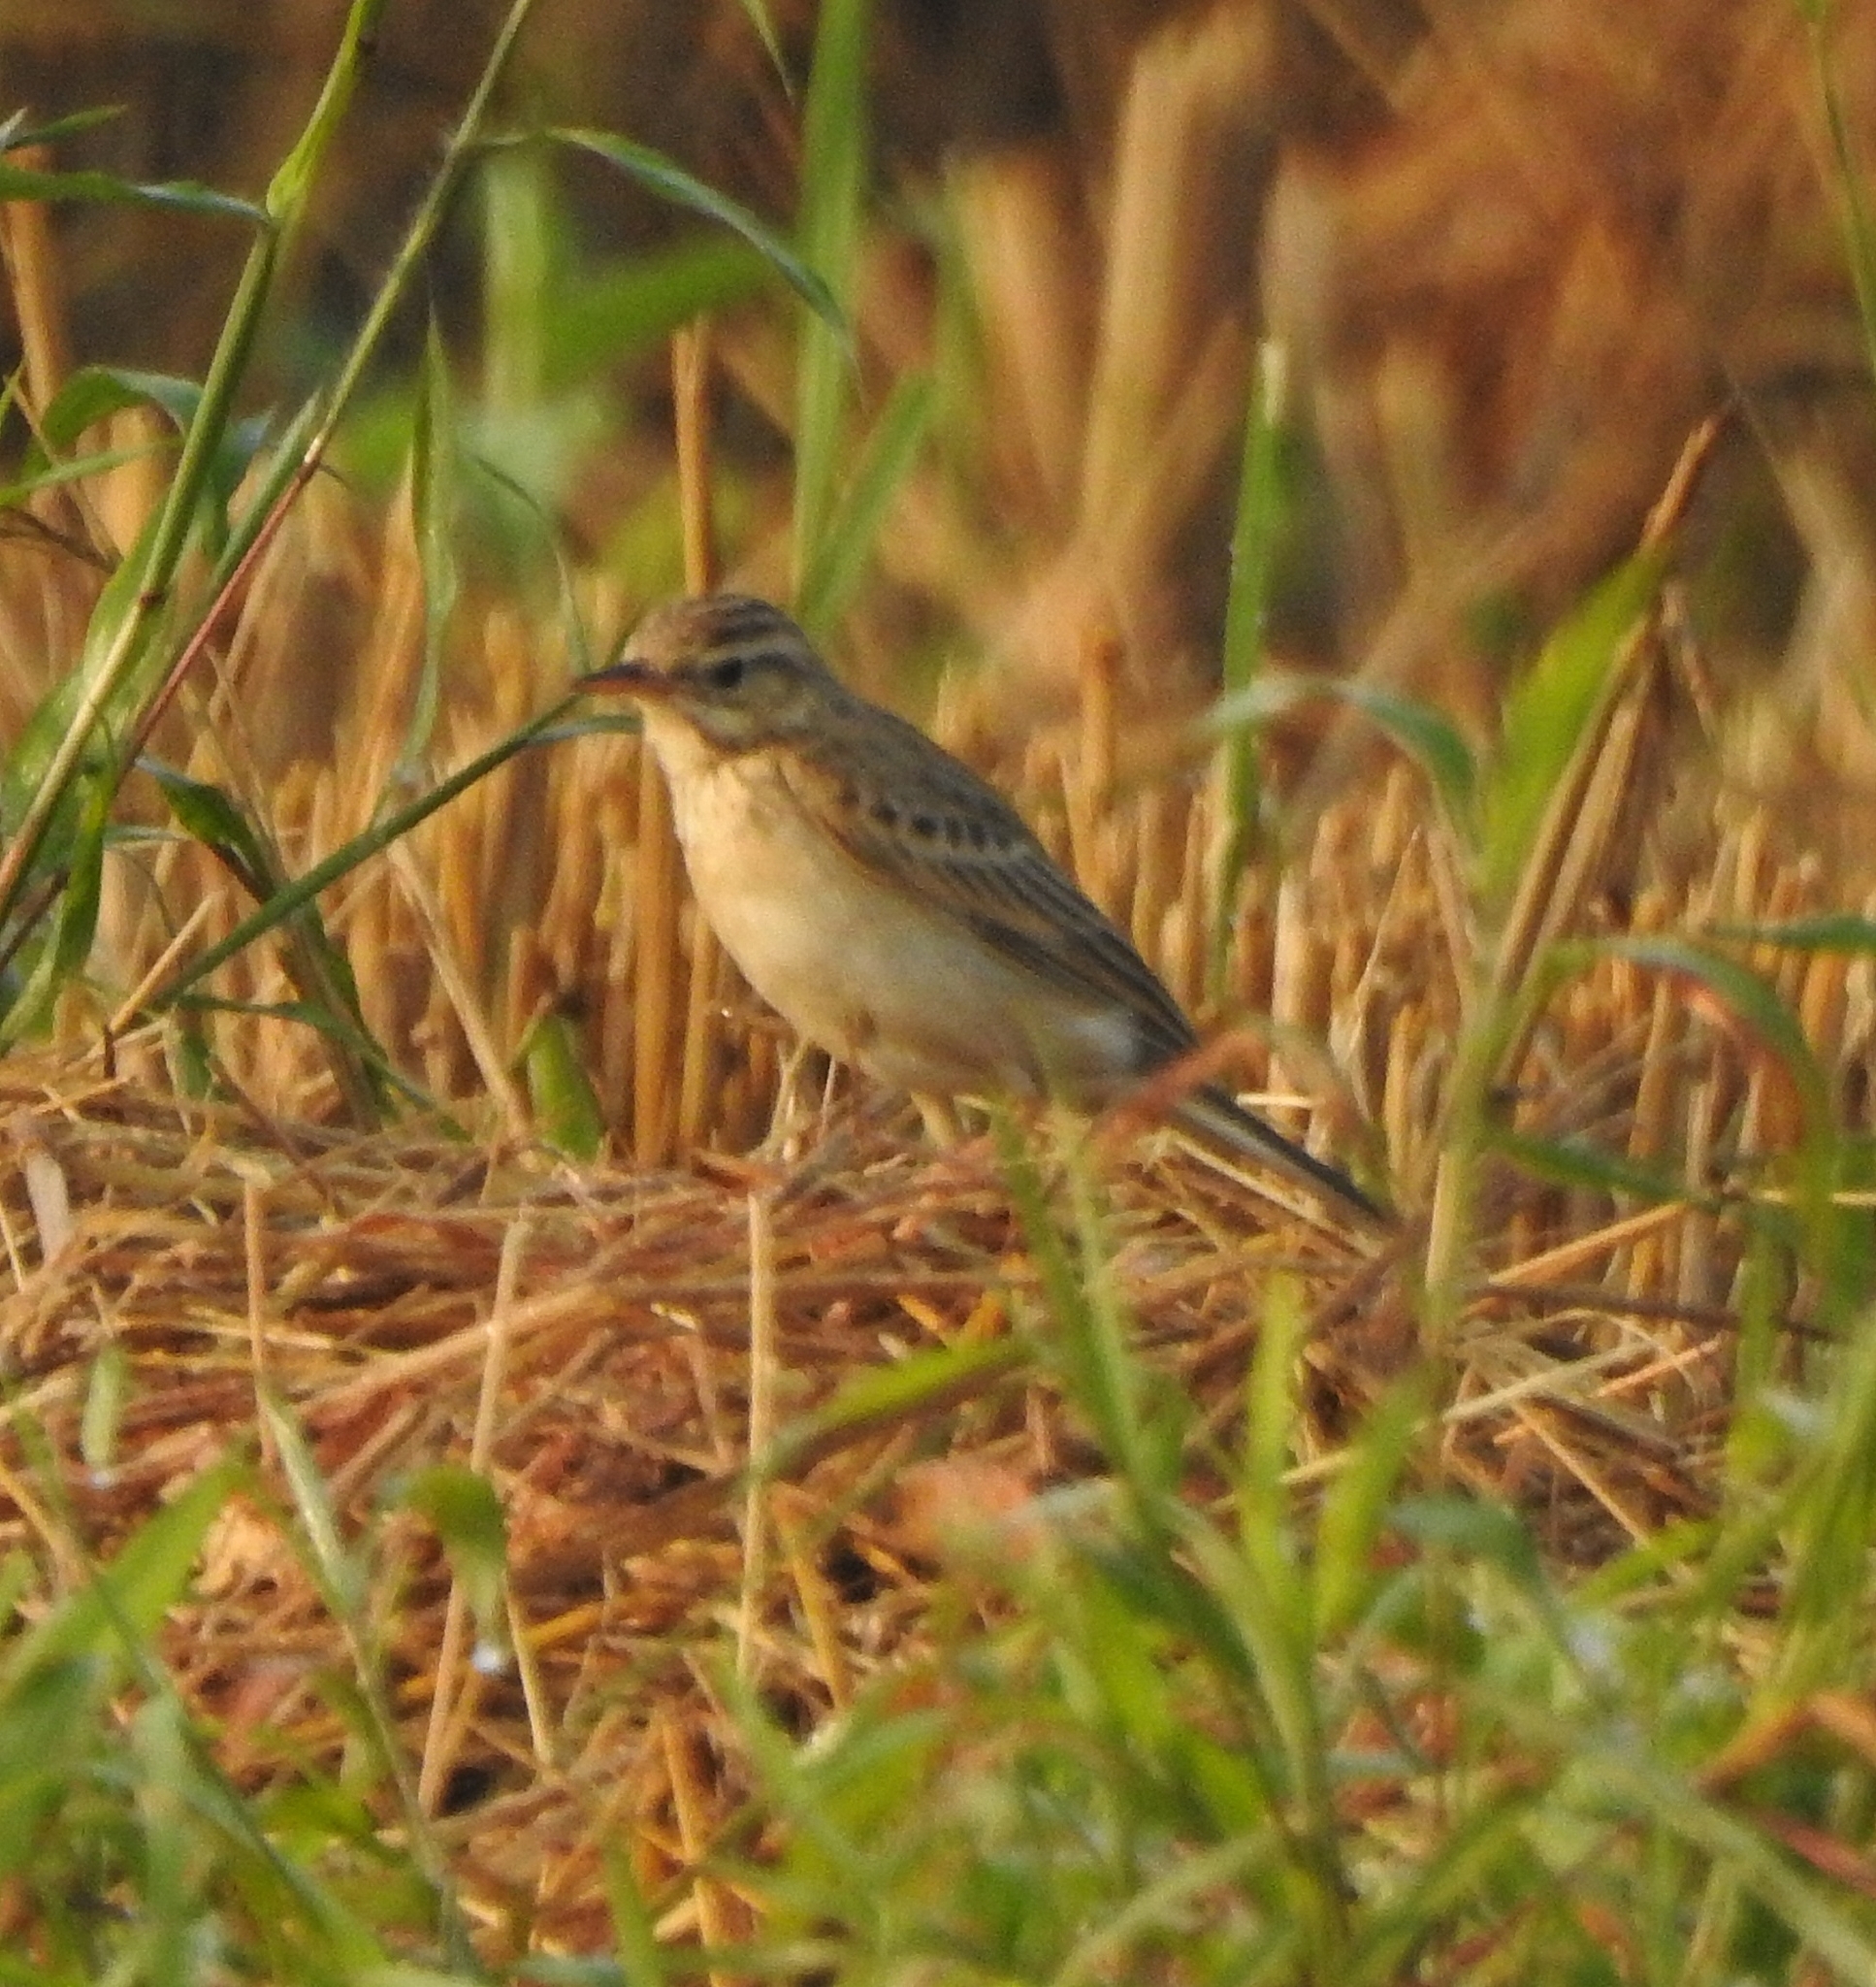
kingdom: Animalia
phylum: Chordata
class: Aves
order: Passeriformes
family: Motacillidae
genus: Anthus
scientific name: Anthus rufulus
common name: Paddyfield pipit
